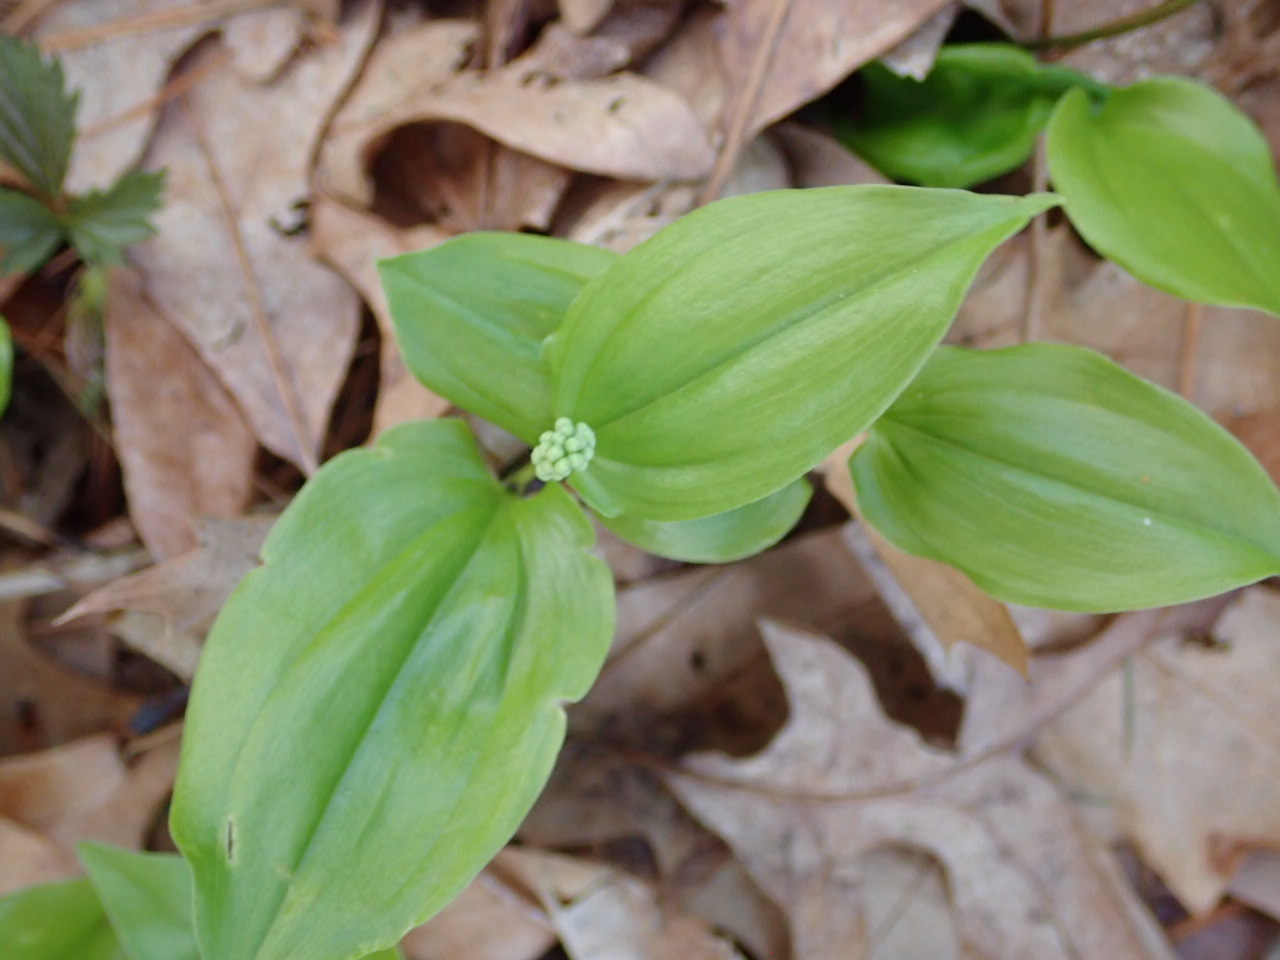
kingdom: Plantae
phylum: Tracheophyta
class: Liliopsida
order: Asparagales
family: Asparagaceae
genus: Maianthemum
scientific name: Maianthemum canadense
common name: False lily-of-the-valley
